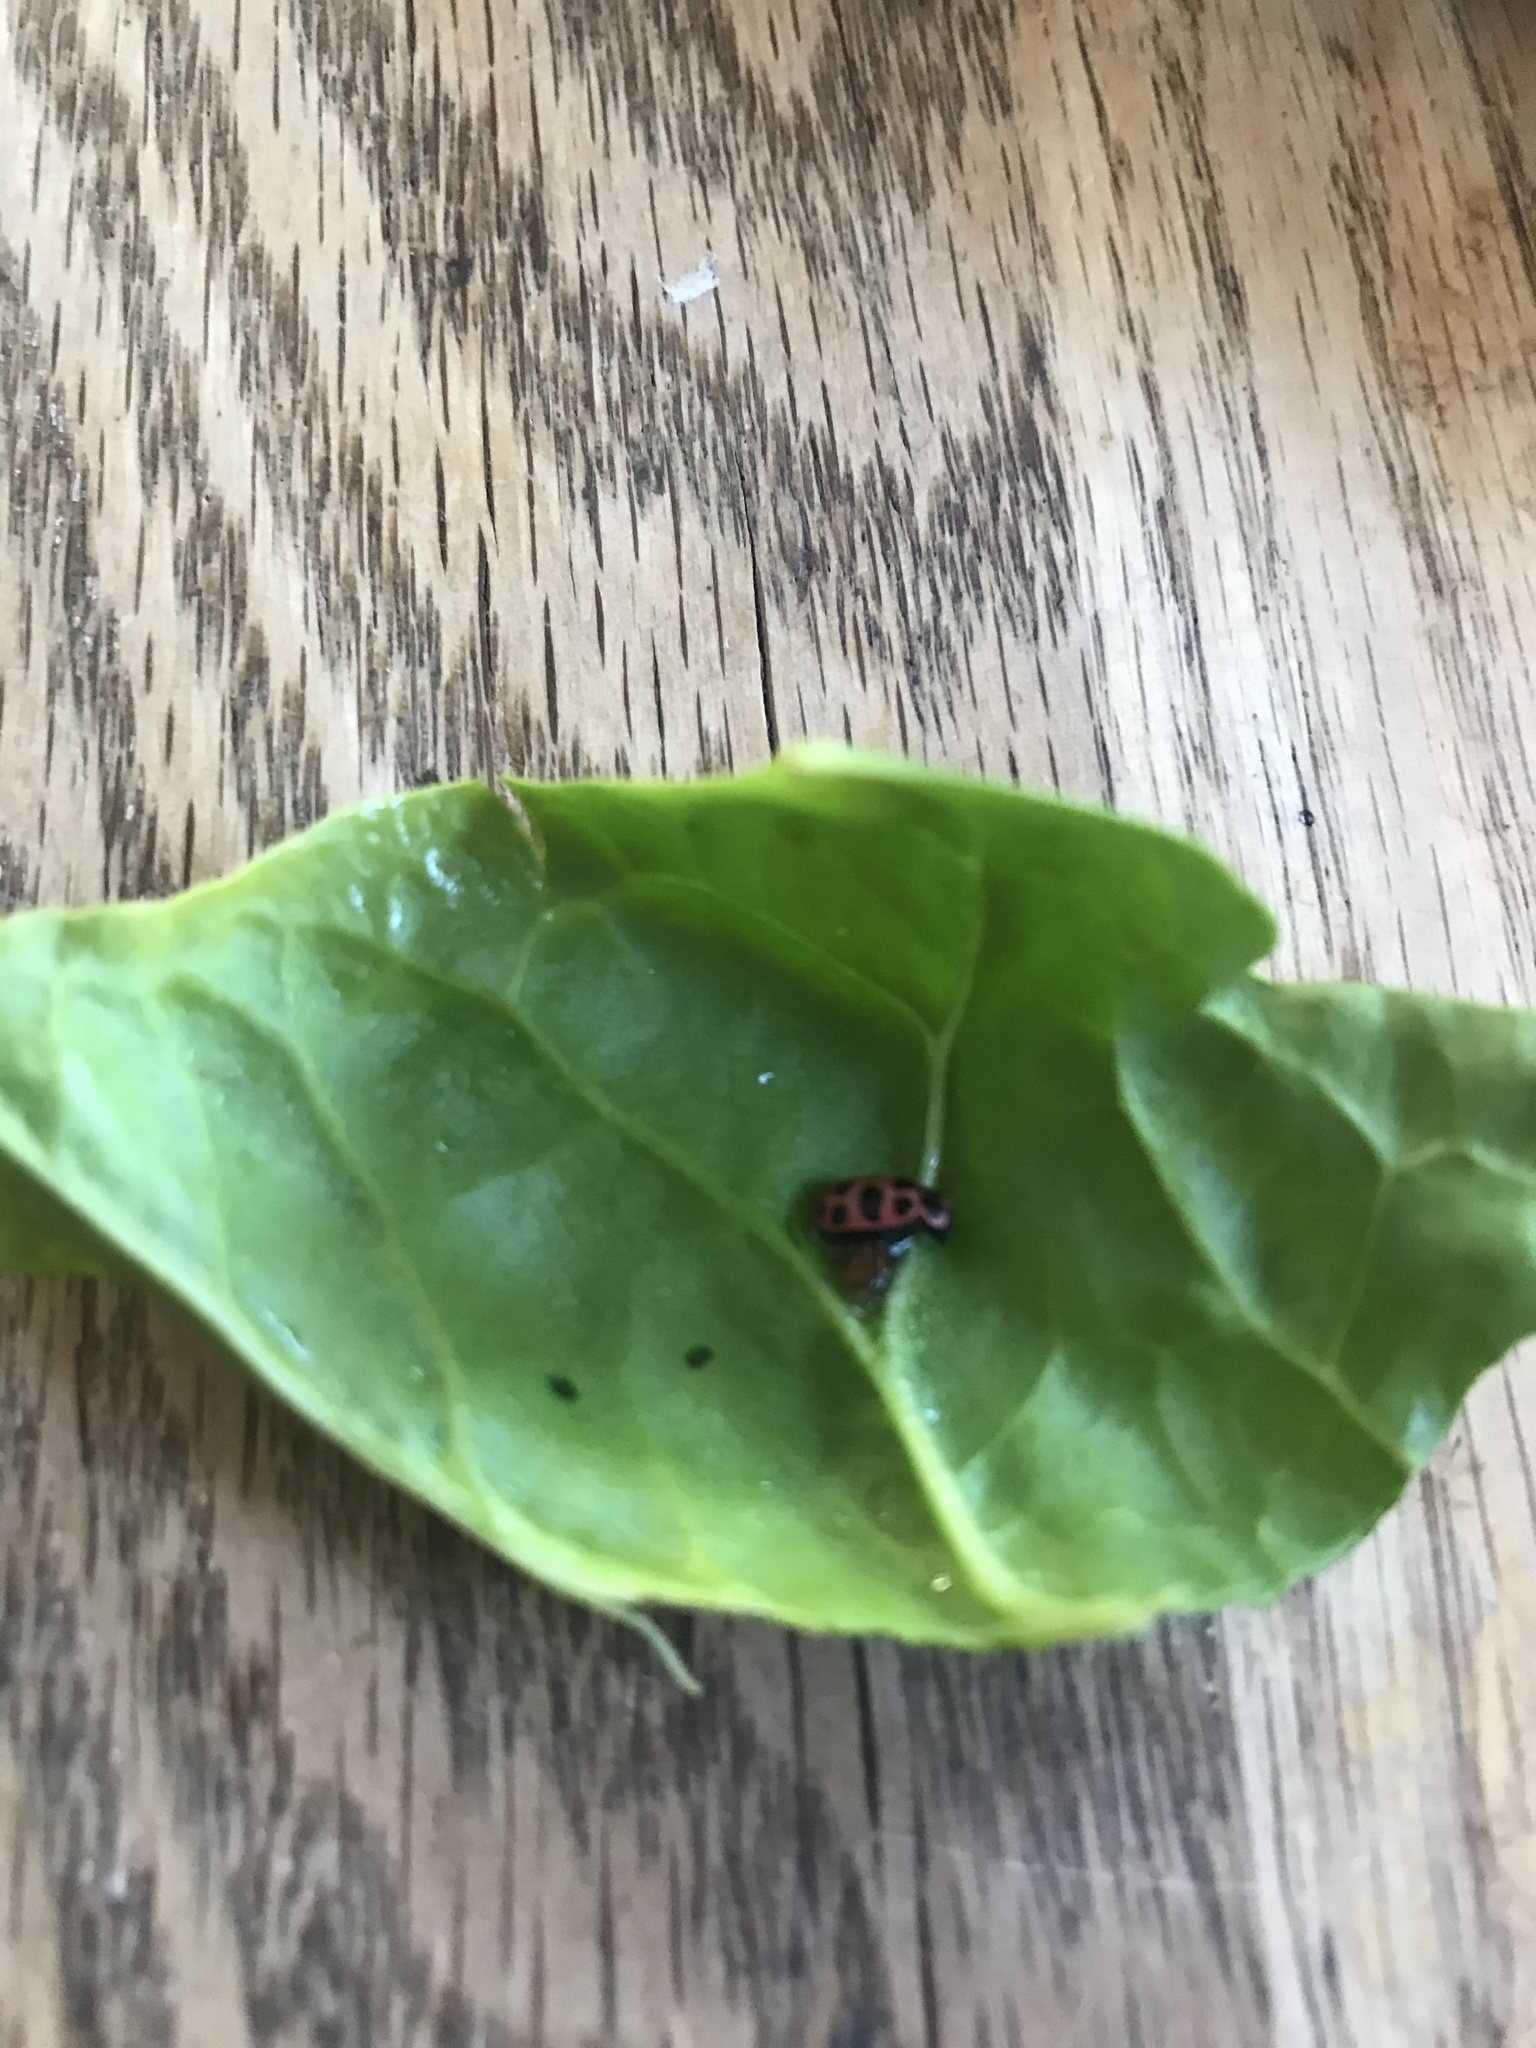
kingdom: Animalia
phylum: Arthropoda
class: Insecta
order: Coleoptera
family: Coccinellidae
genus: Coleomegilla
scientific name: Coleomegilla maculata
